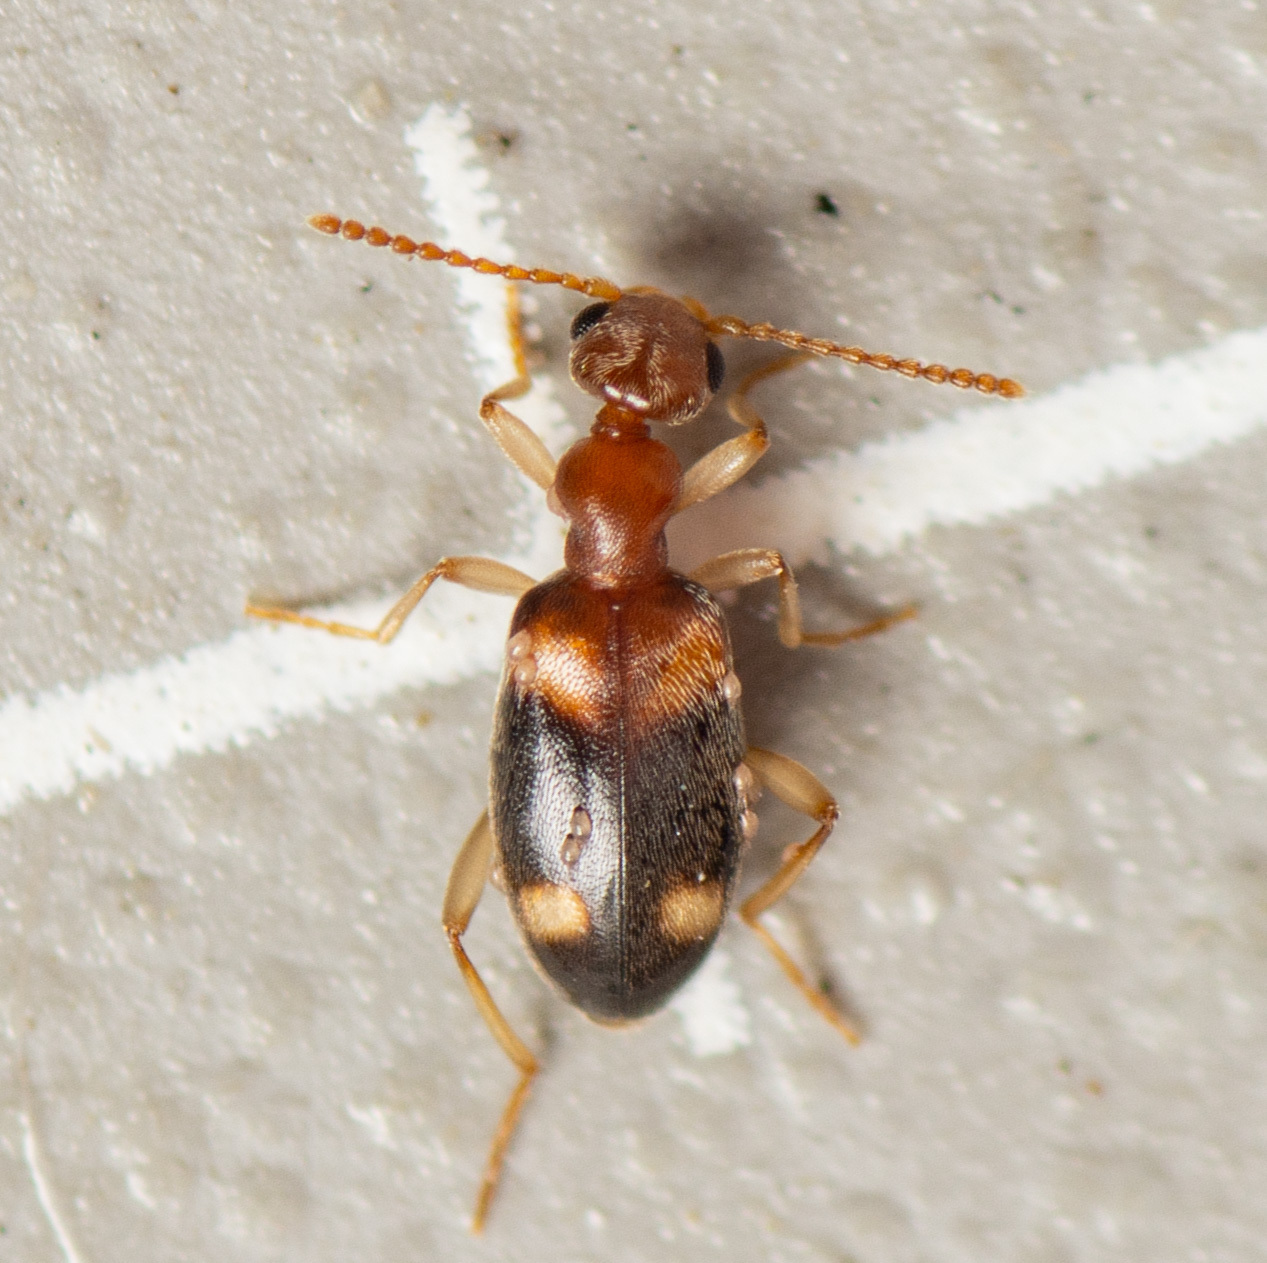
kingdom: Animalia
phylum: Arthropoda
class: Insecta
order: Coleoptera
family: Anthicidae
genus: Stricticollis
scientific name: Stricticollis tobias
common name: Two-dotted ant-like flower beetle
